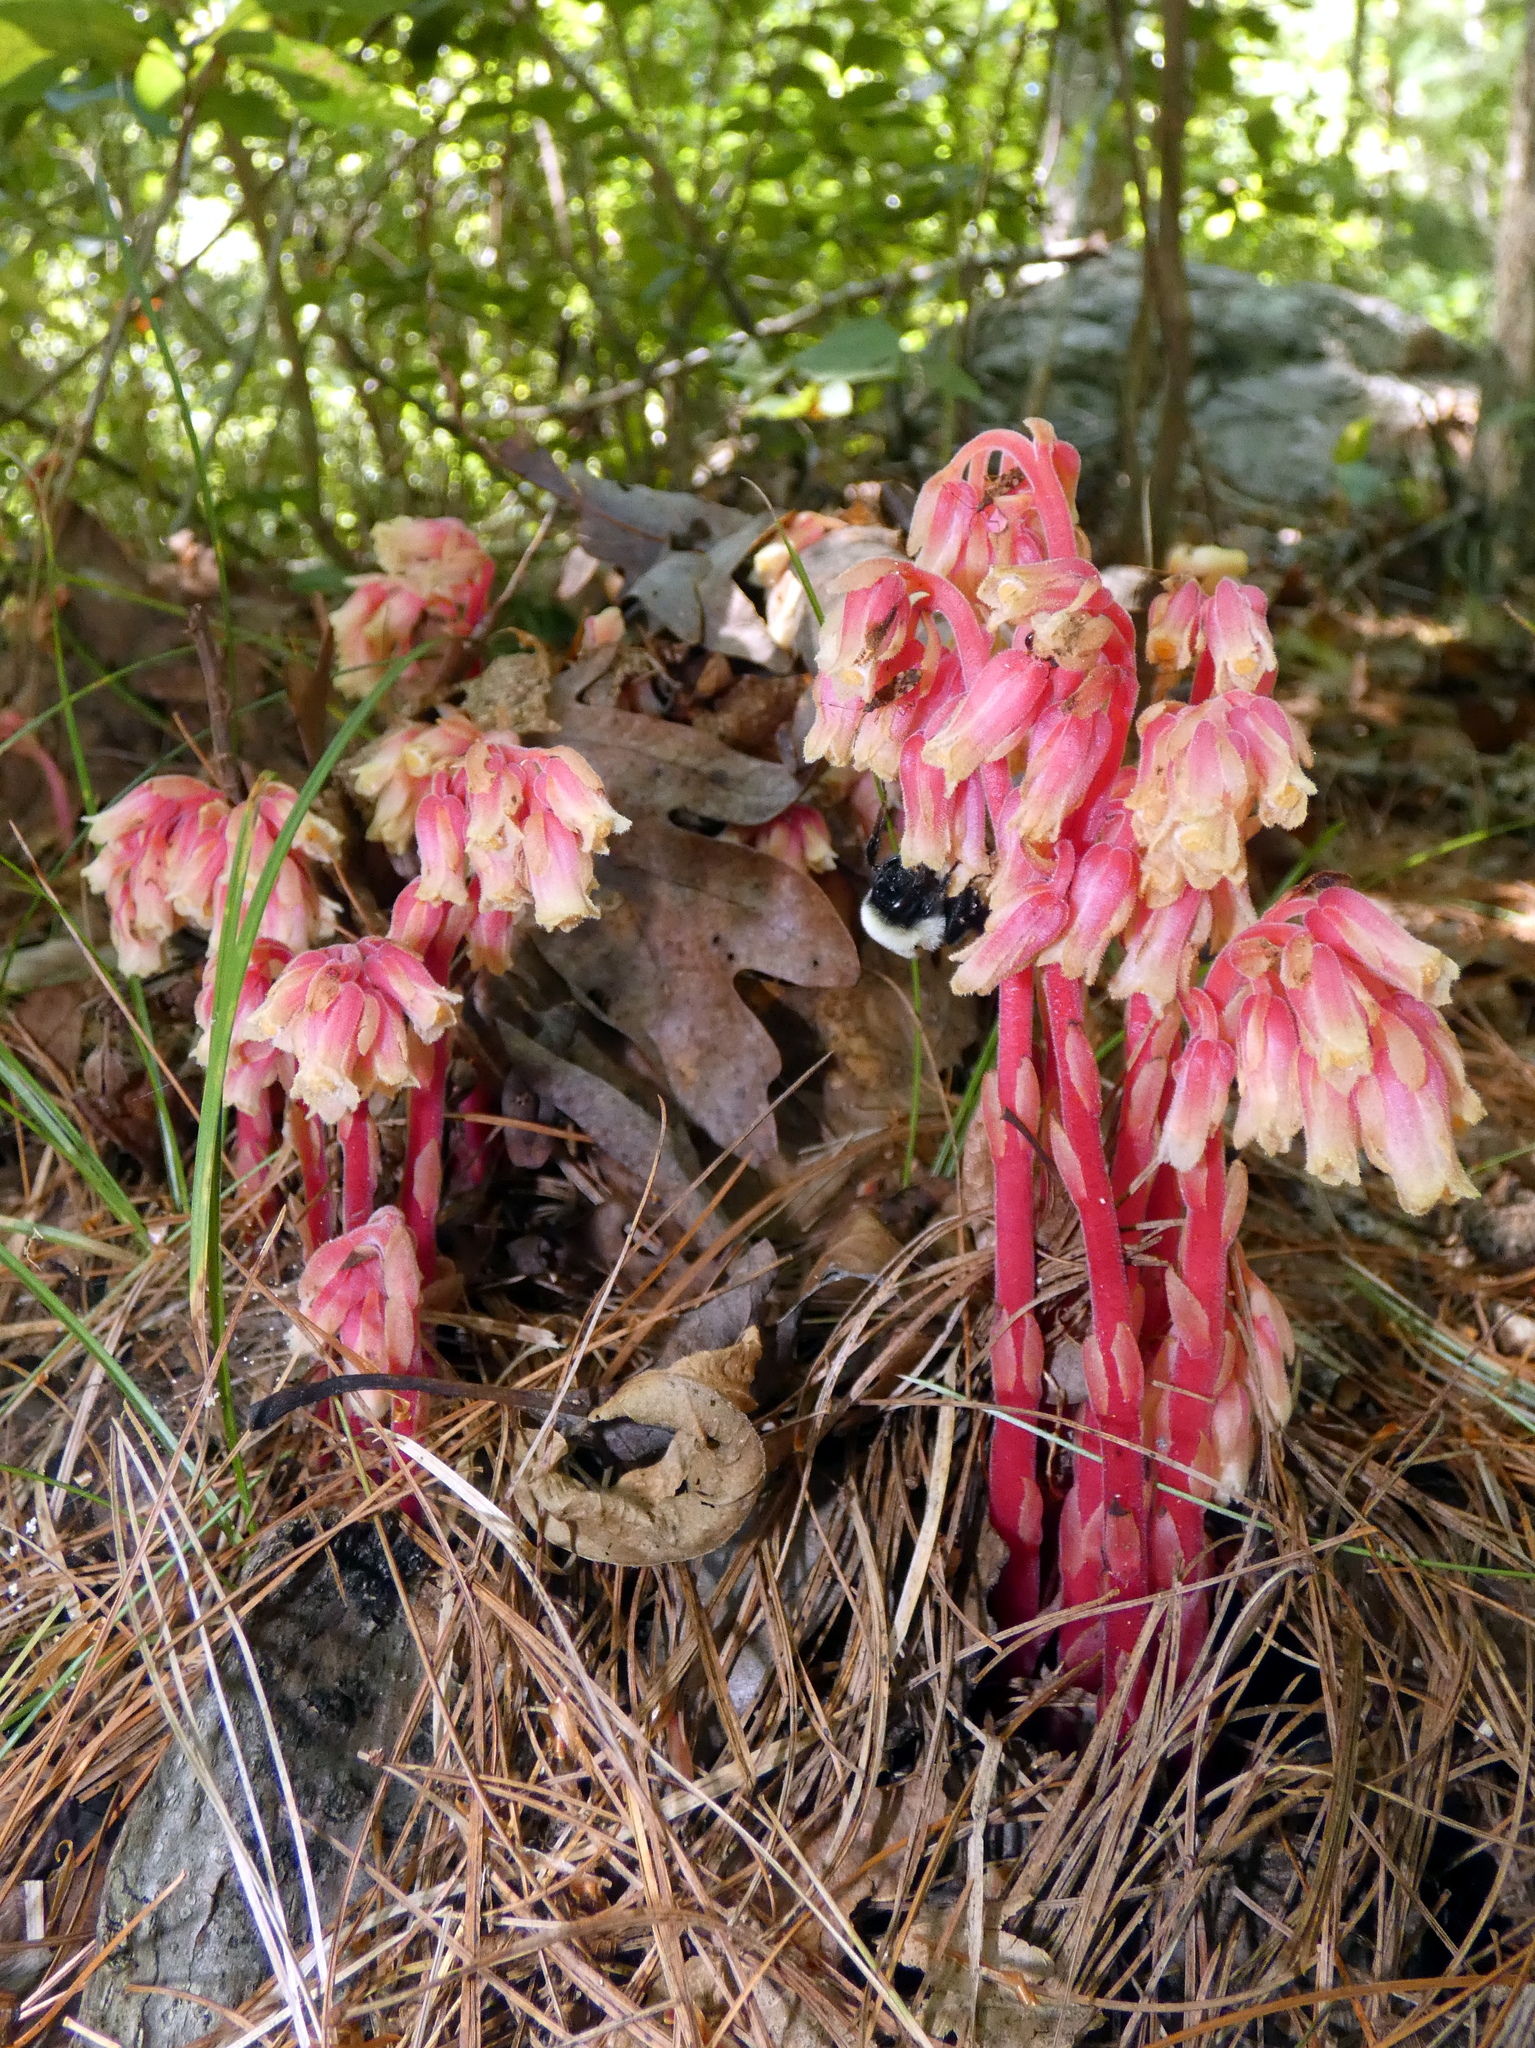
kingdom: Plantae
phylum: Tracheophyta
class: Magnoliopsida
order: Ericales
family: Ericaceae
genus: Hypopitys
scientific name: Hypopitys monotropa
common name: Yellow bird's-nest
